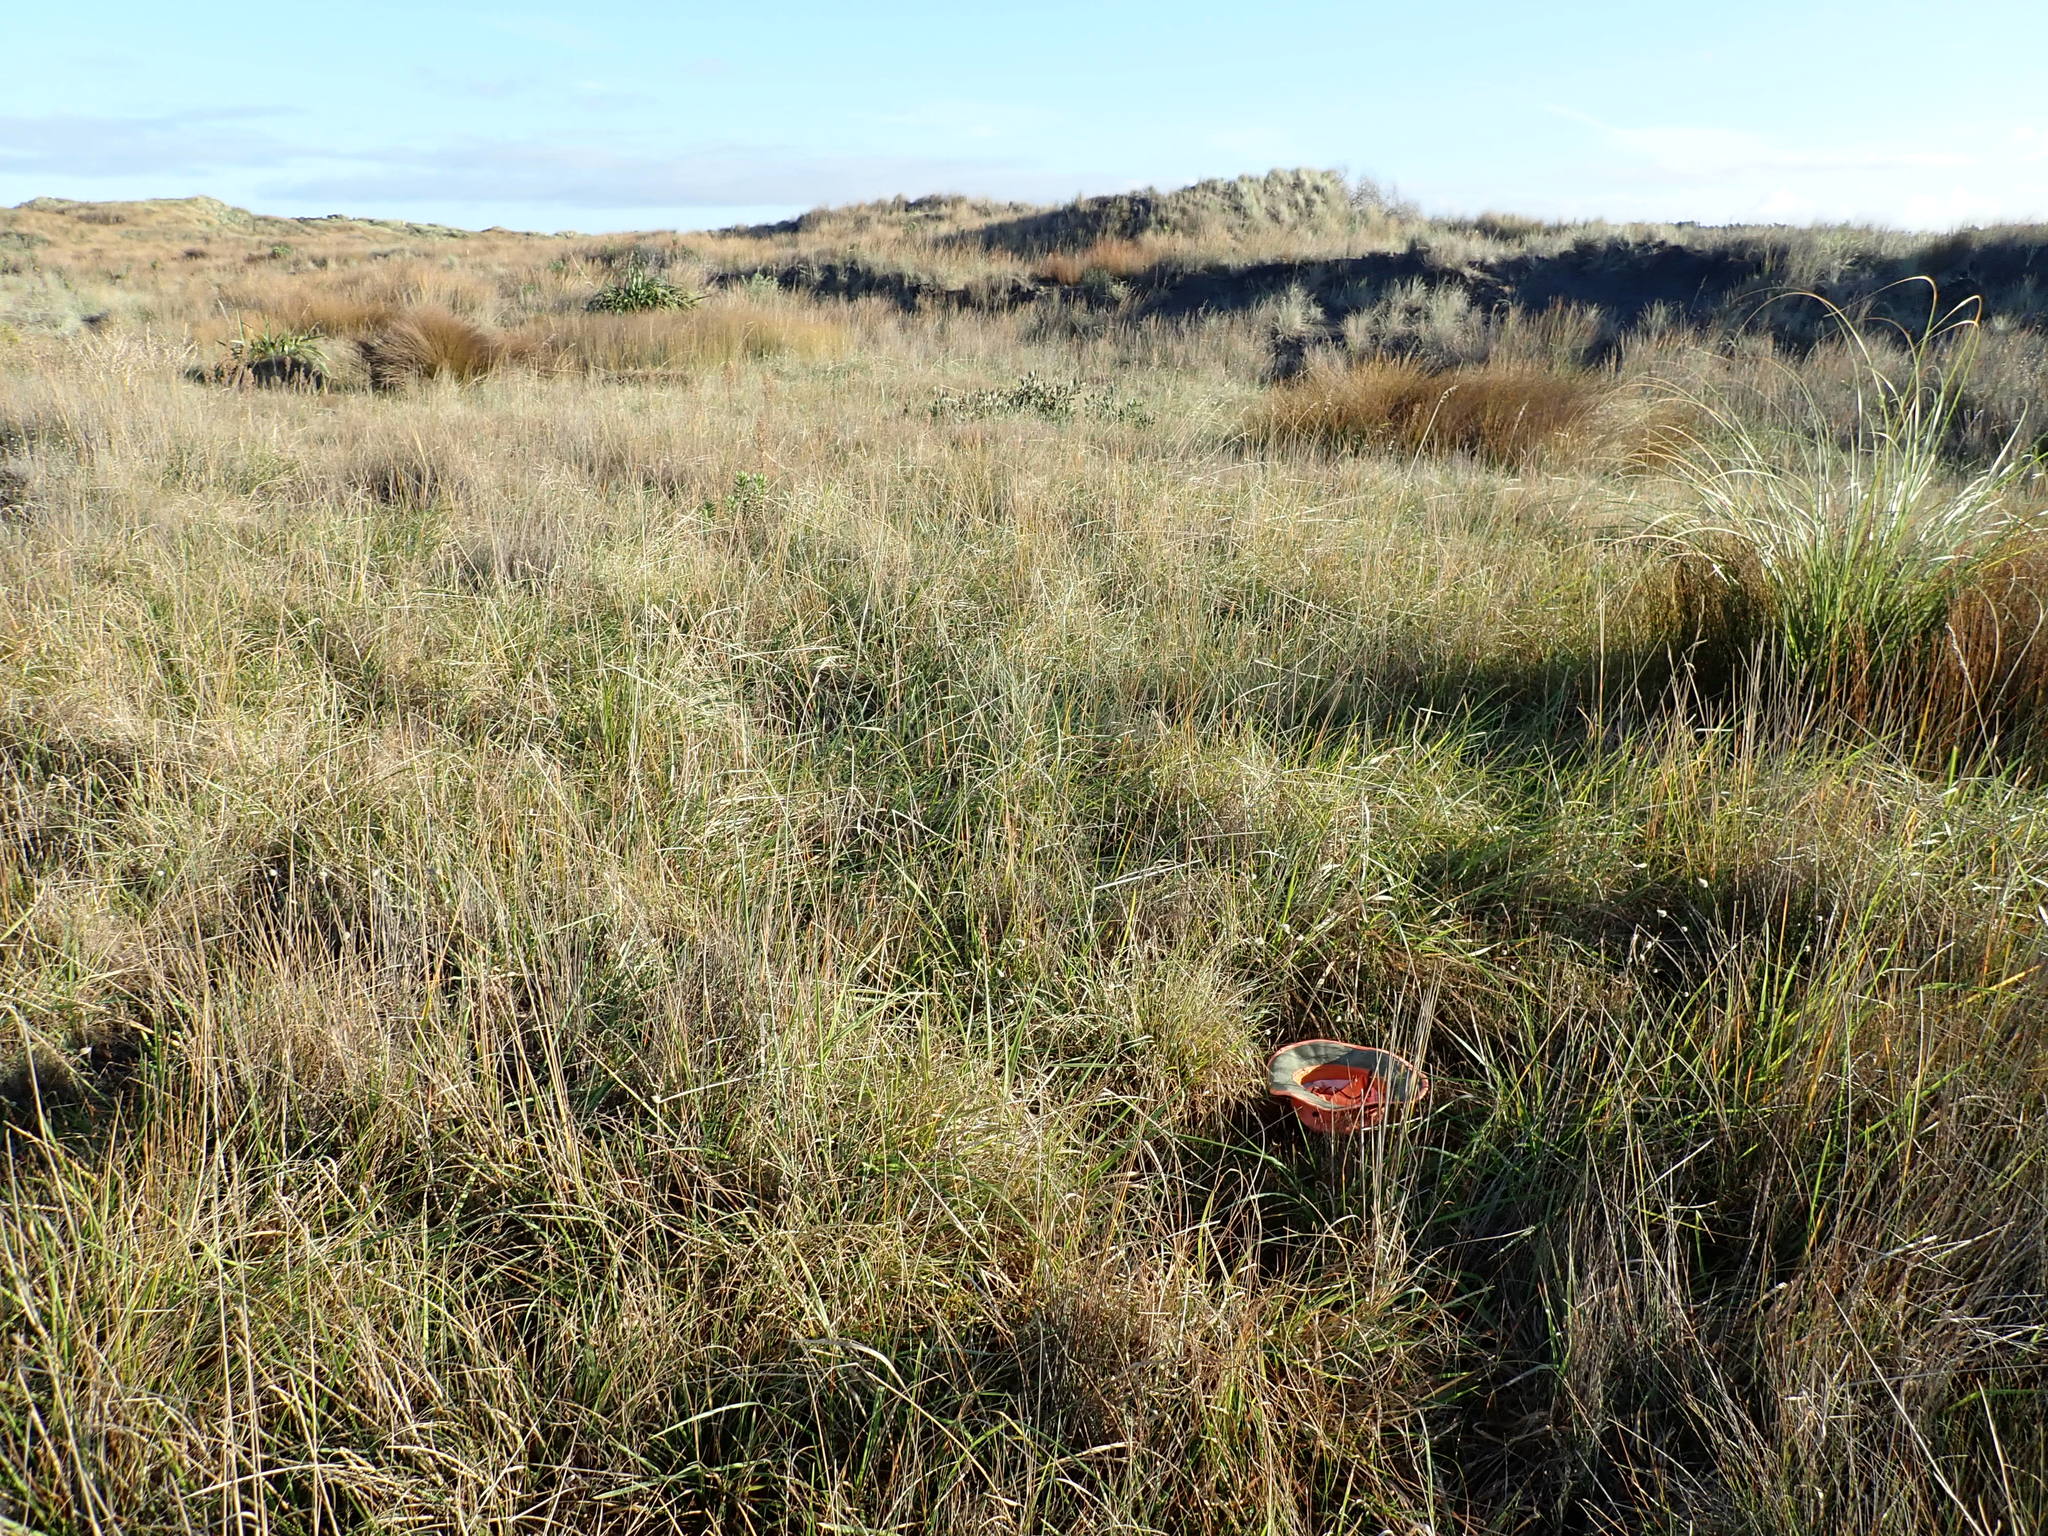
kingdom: Plantae
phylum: Tracheophyta
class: Liliopsida
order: Poales
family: Cyperaceae
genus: Schoenus
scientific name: Schoenus nitens
